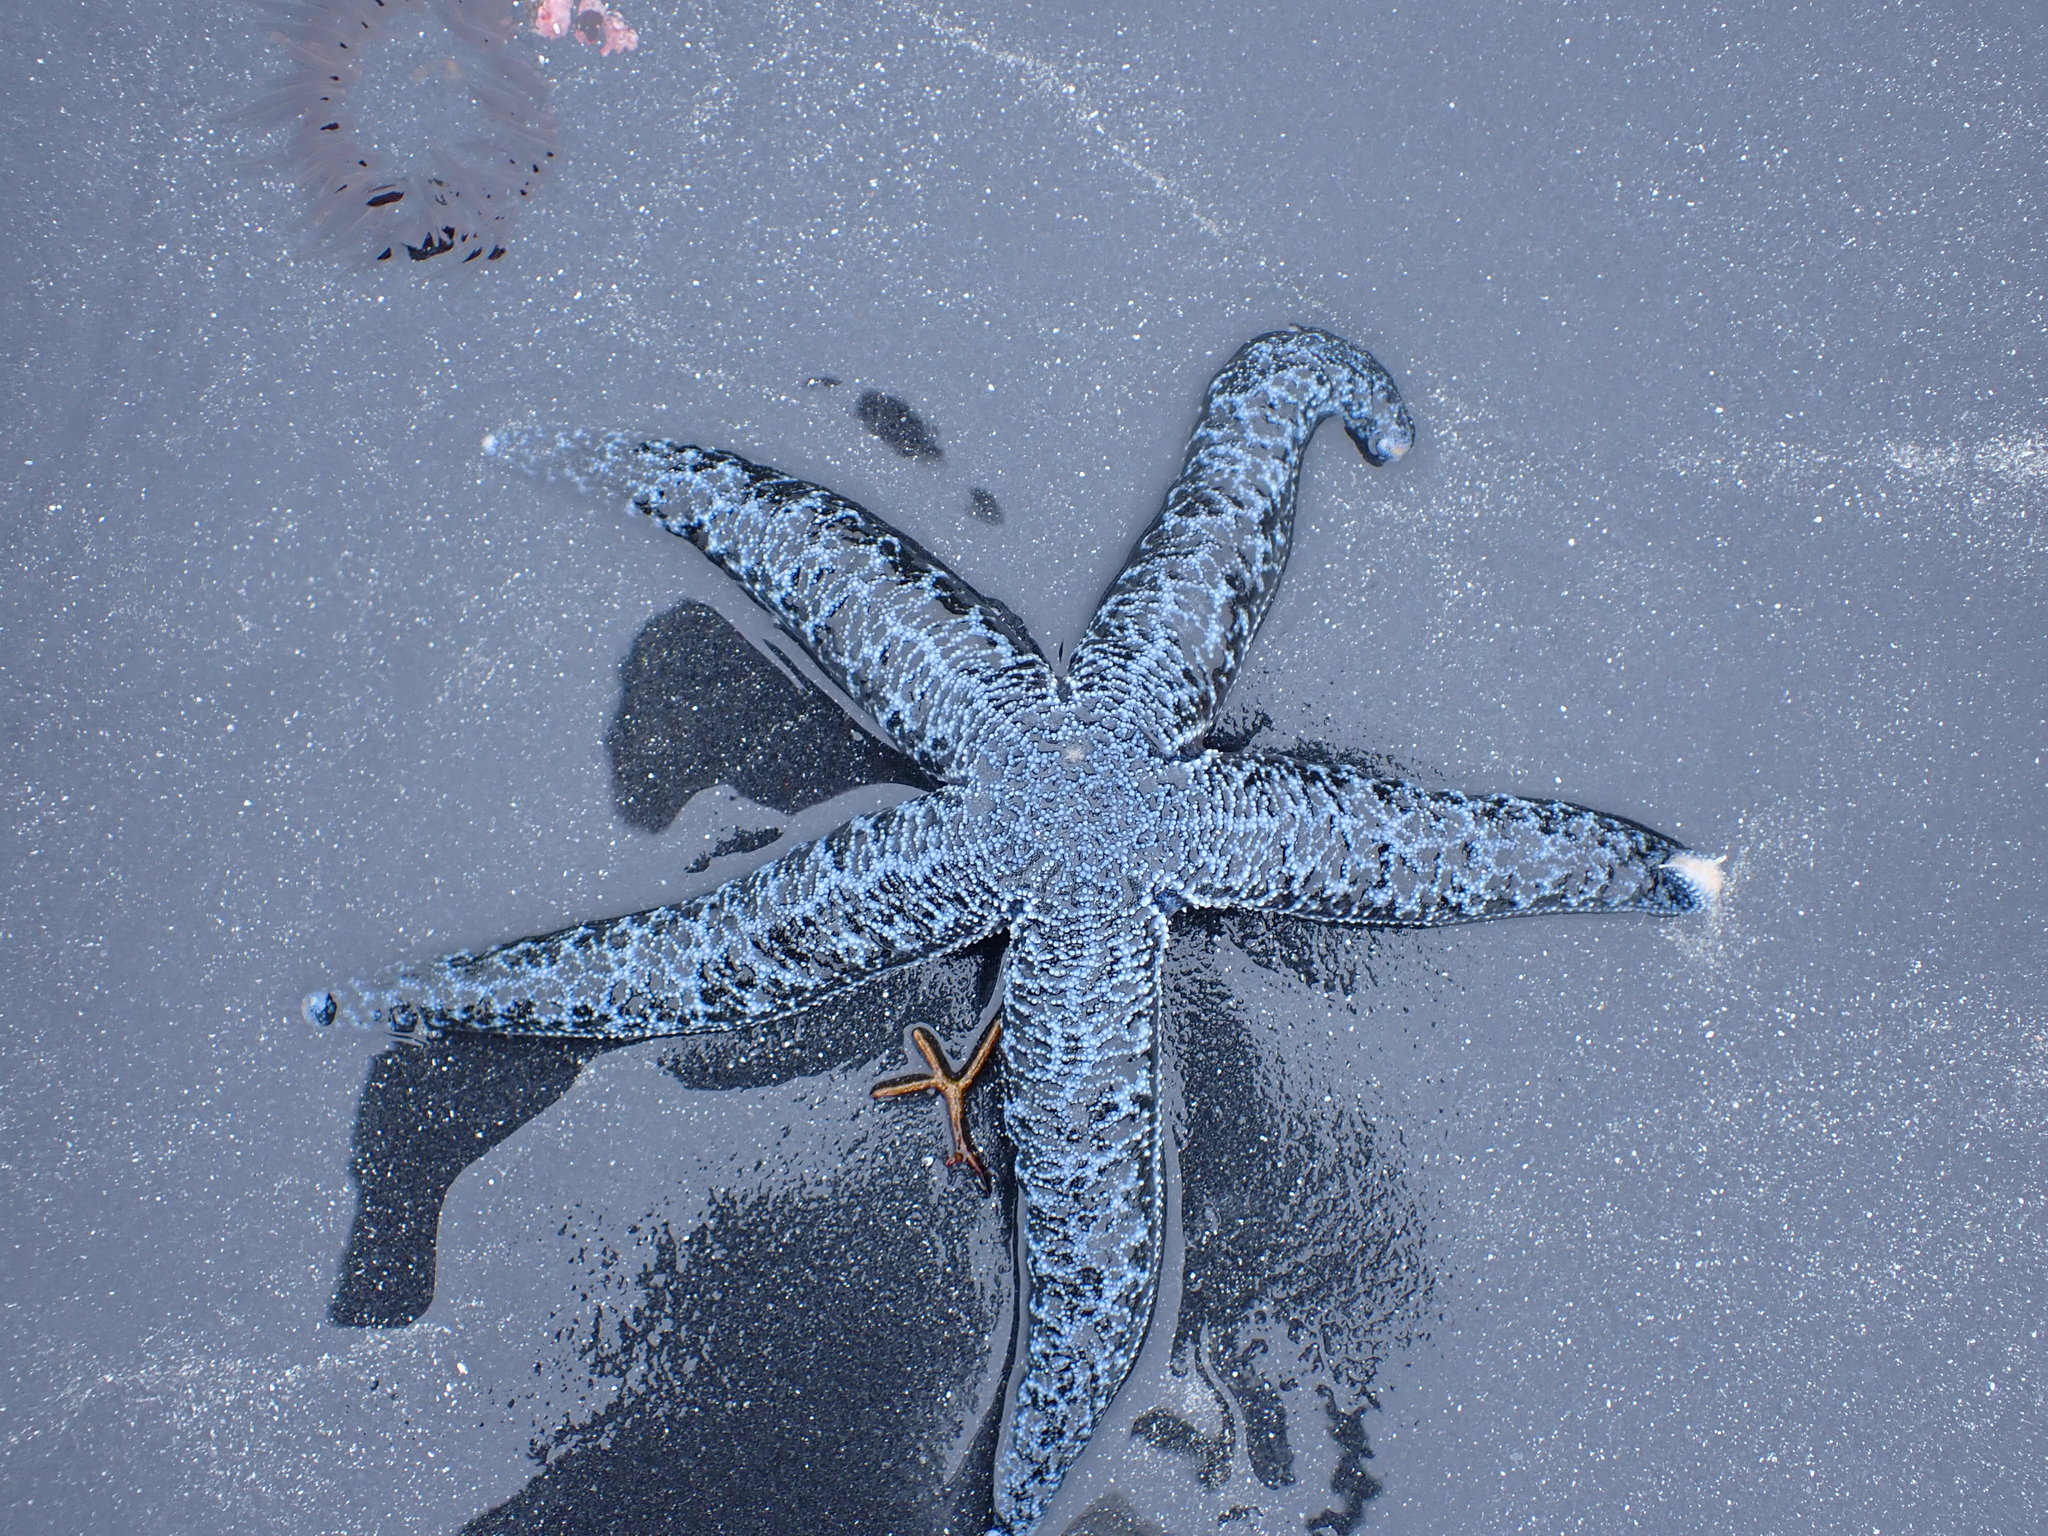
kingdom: Animalia
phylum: Echinodermata
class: Asteroidea
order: Forcipulatida
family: Asteriidae
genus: Evasterias
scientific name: Evasterias troschelii
